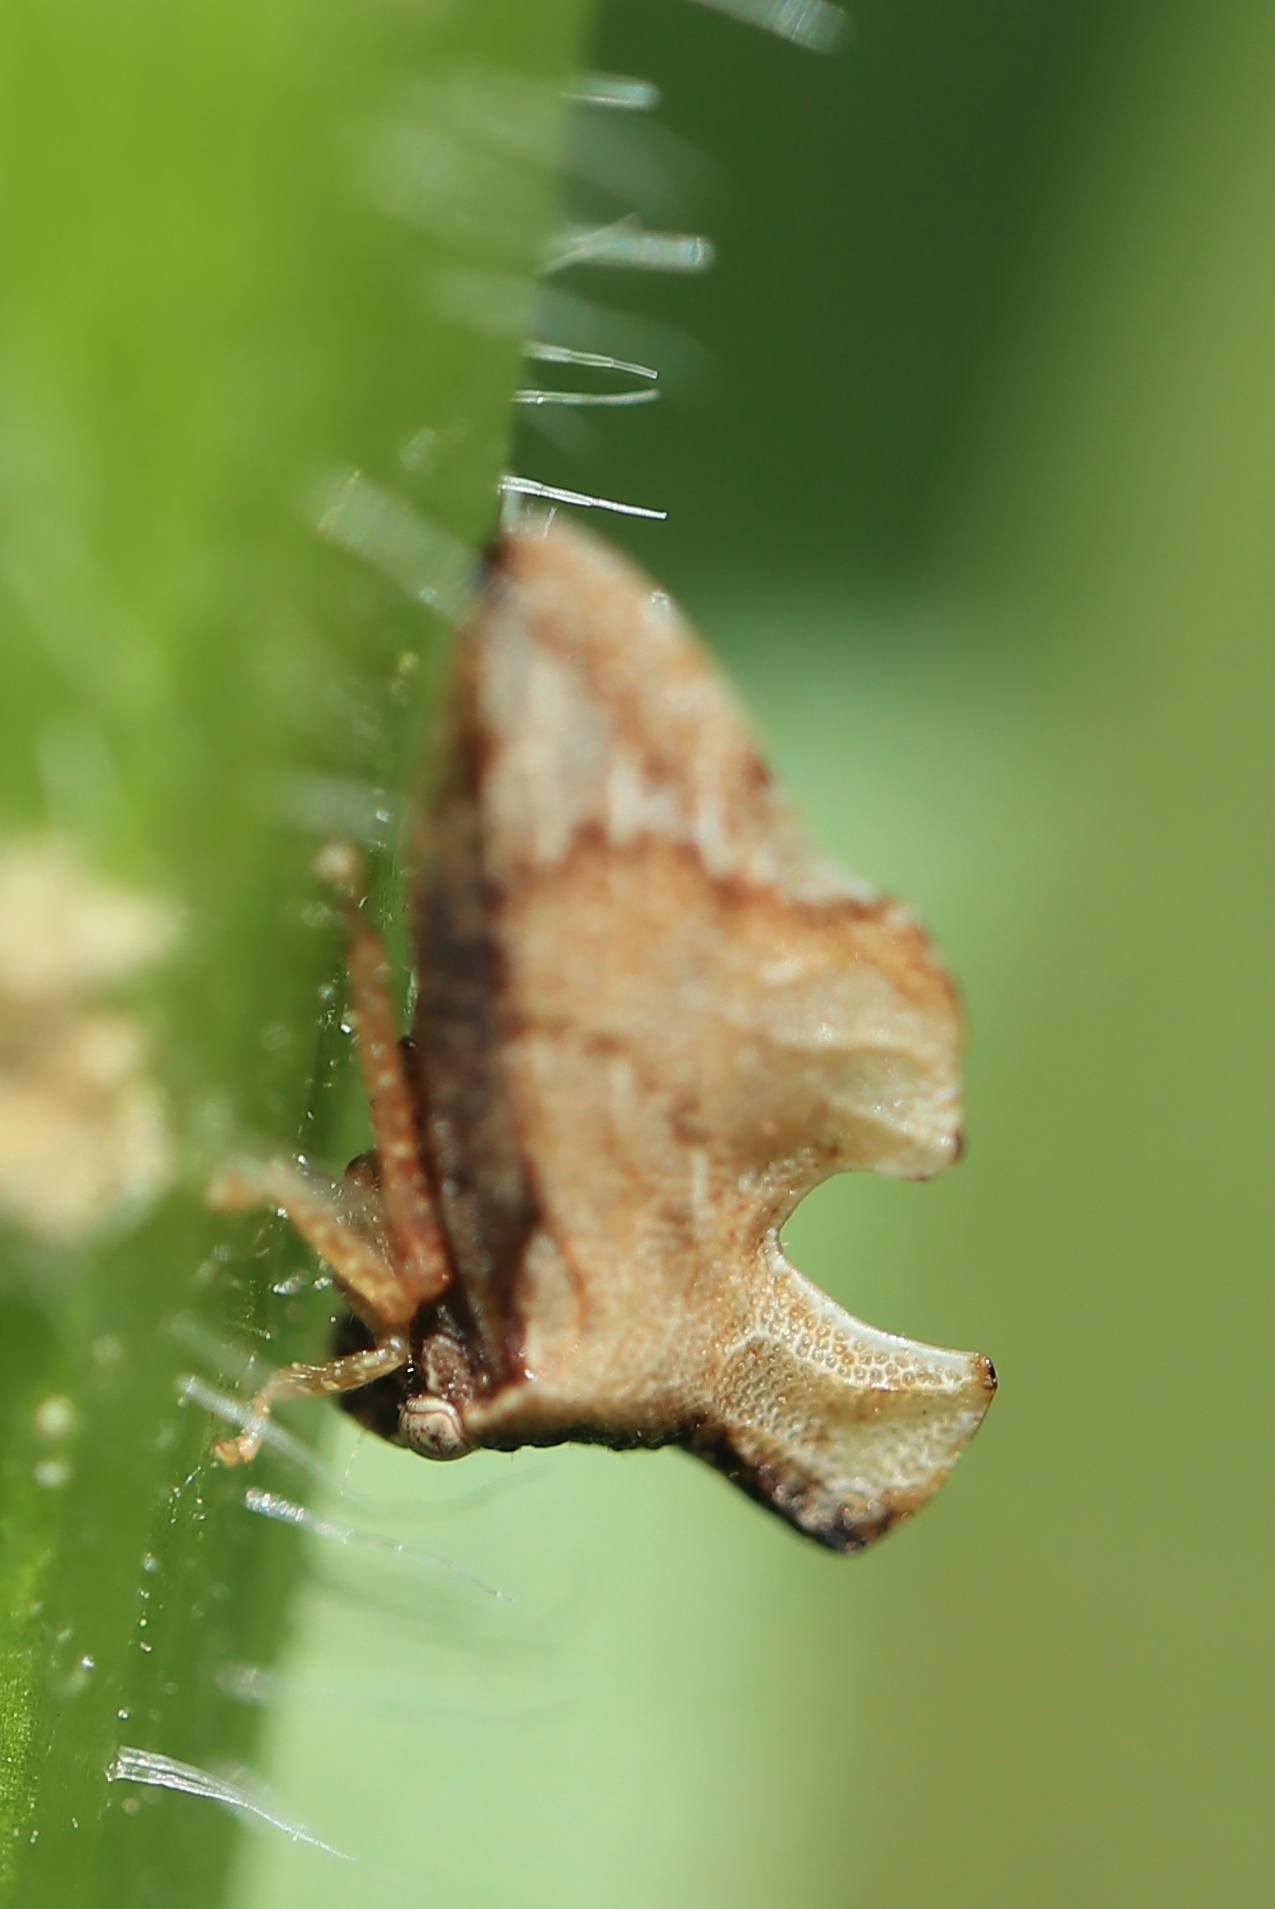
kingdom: Animalia
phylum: Arthropoda
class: Insecta
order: Hemiptera
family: Membracidae
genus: Entylia
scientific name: Entylia carinata
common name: Keeled treehopper
